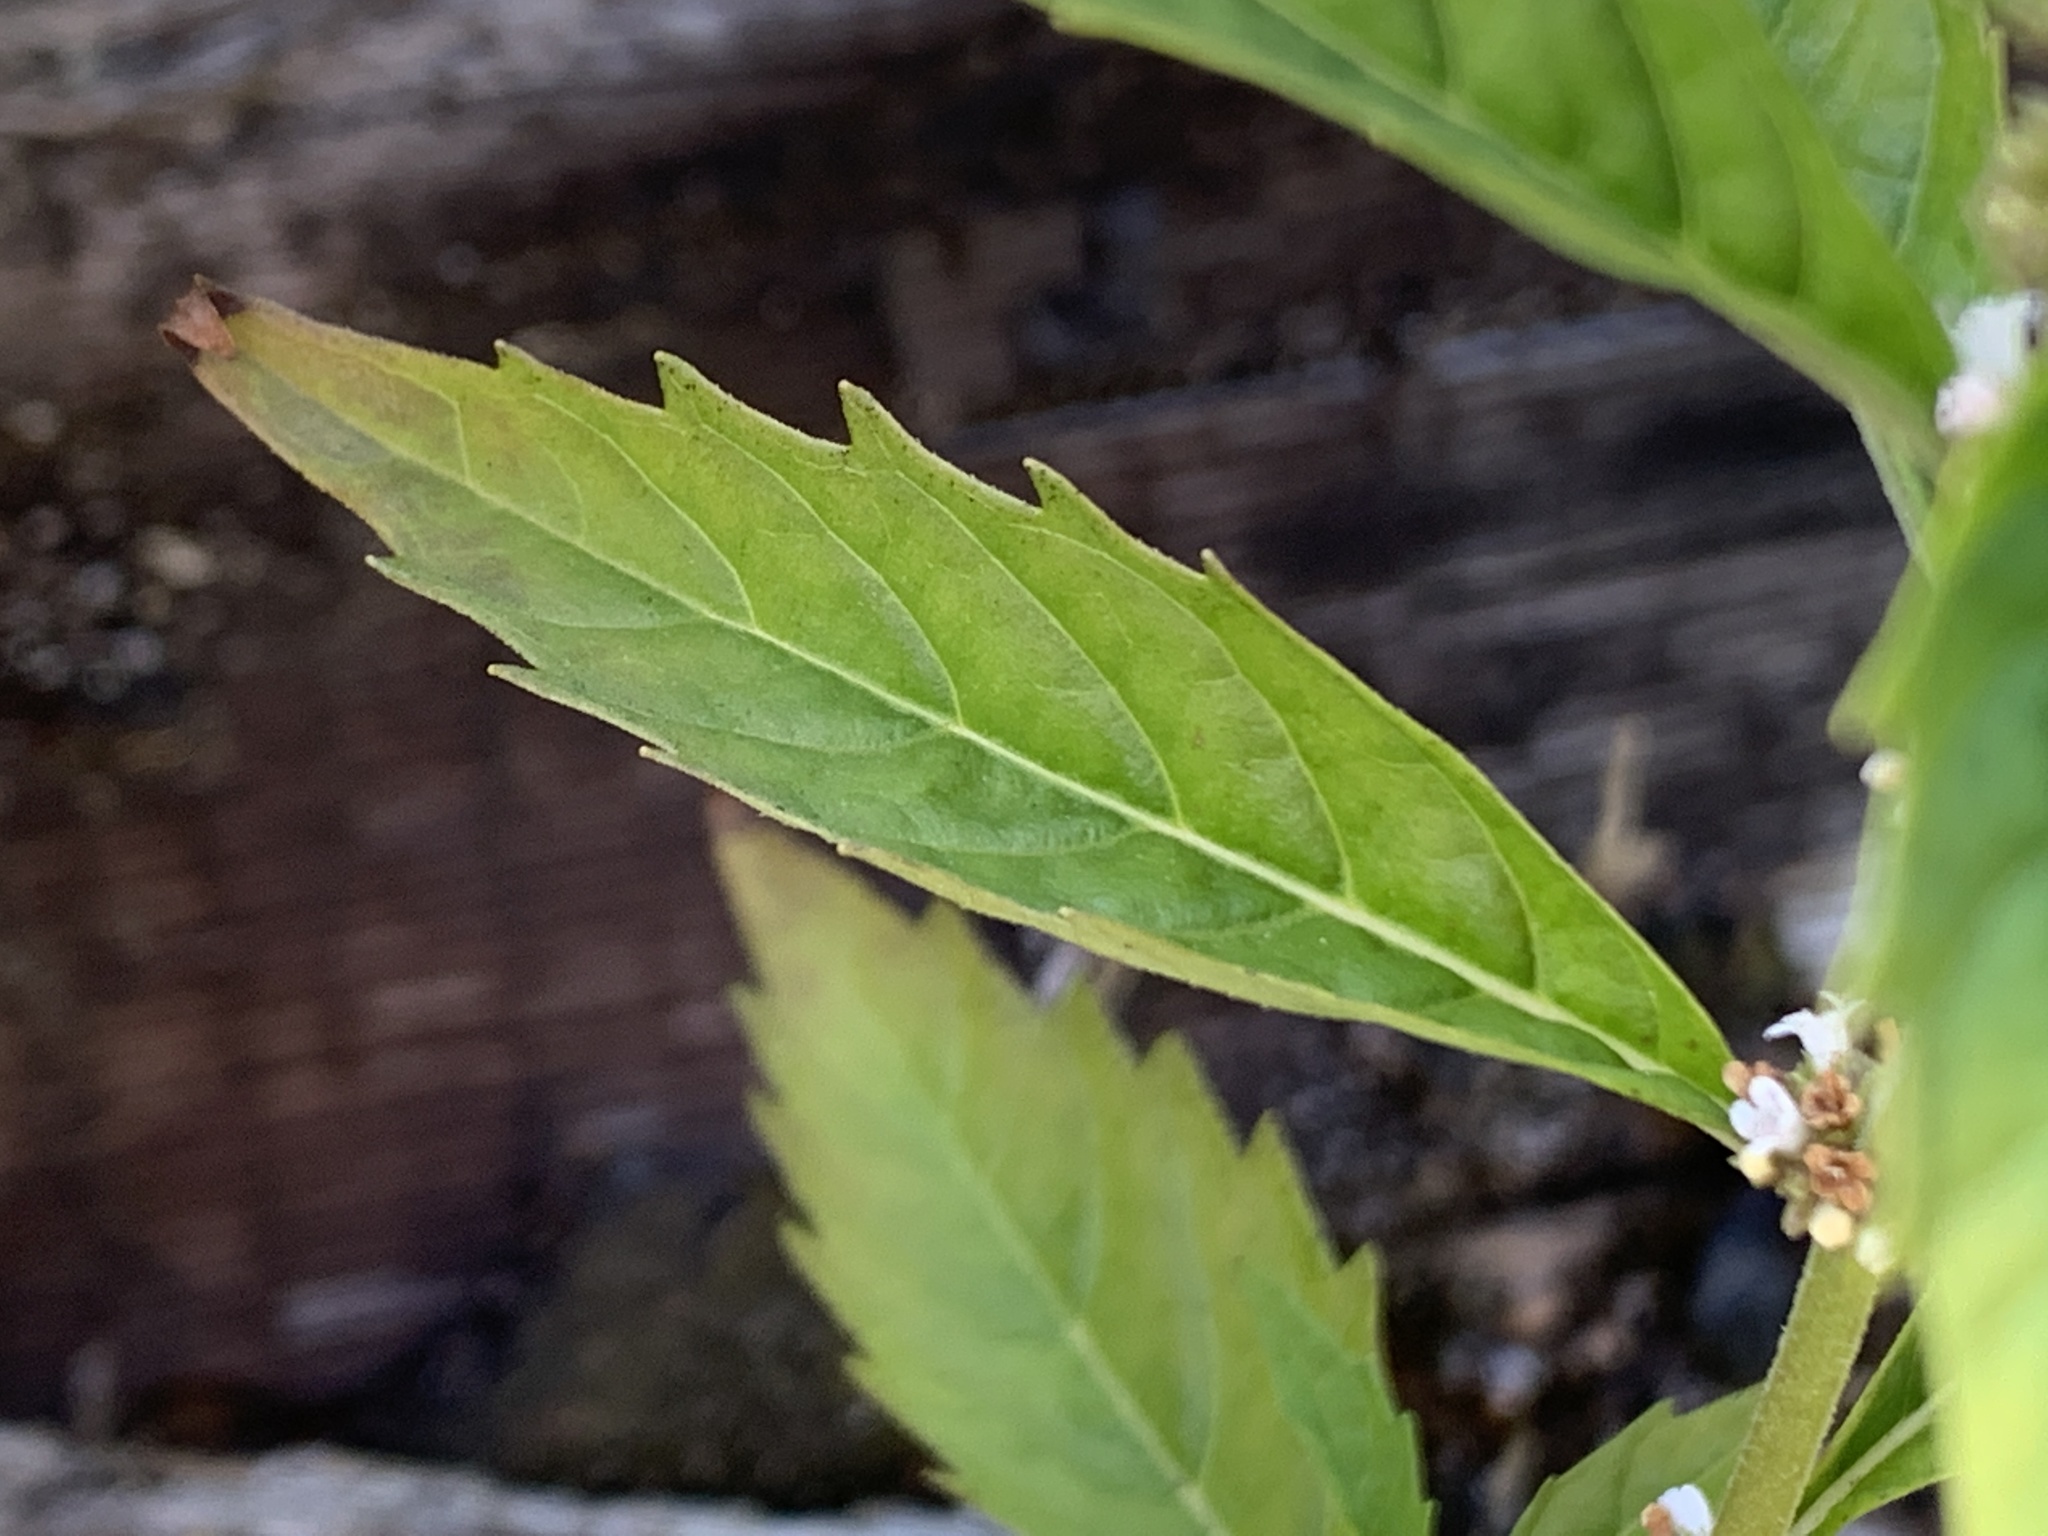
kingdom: Plantae
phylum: Tracheophyta
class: Magnoliopsida
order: Lamiales
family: Lamiaceae
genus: Lycopus
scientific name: Lycopus uniflorus
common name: Northern bugleweed
